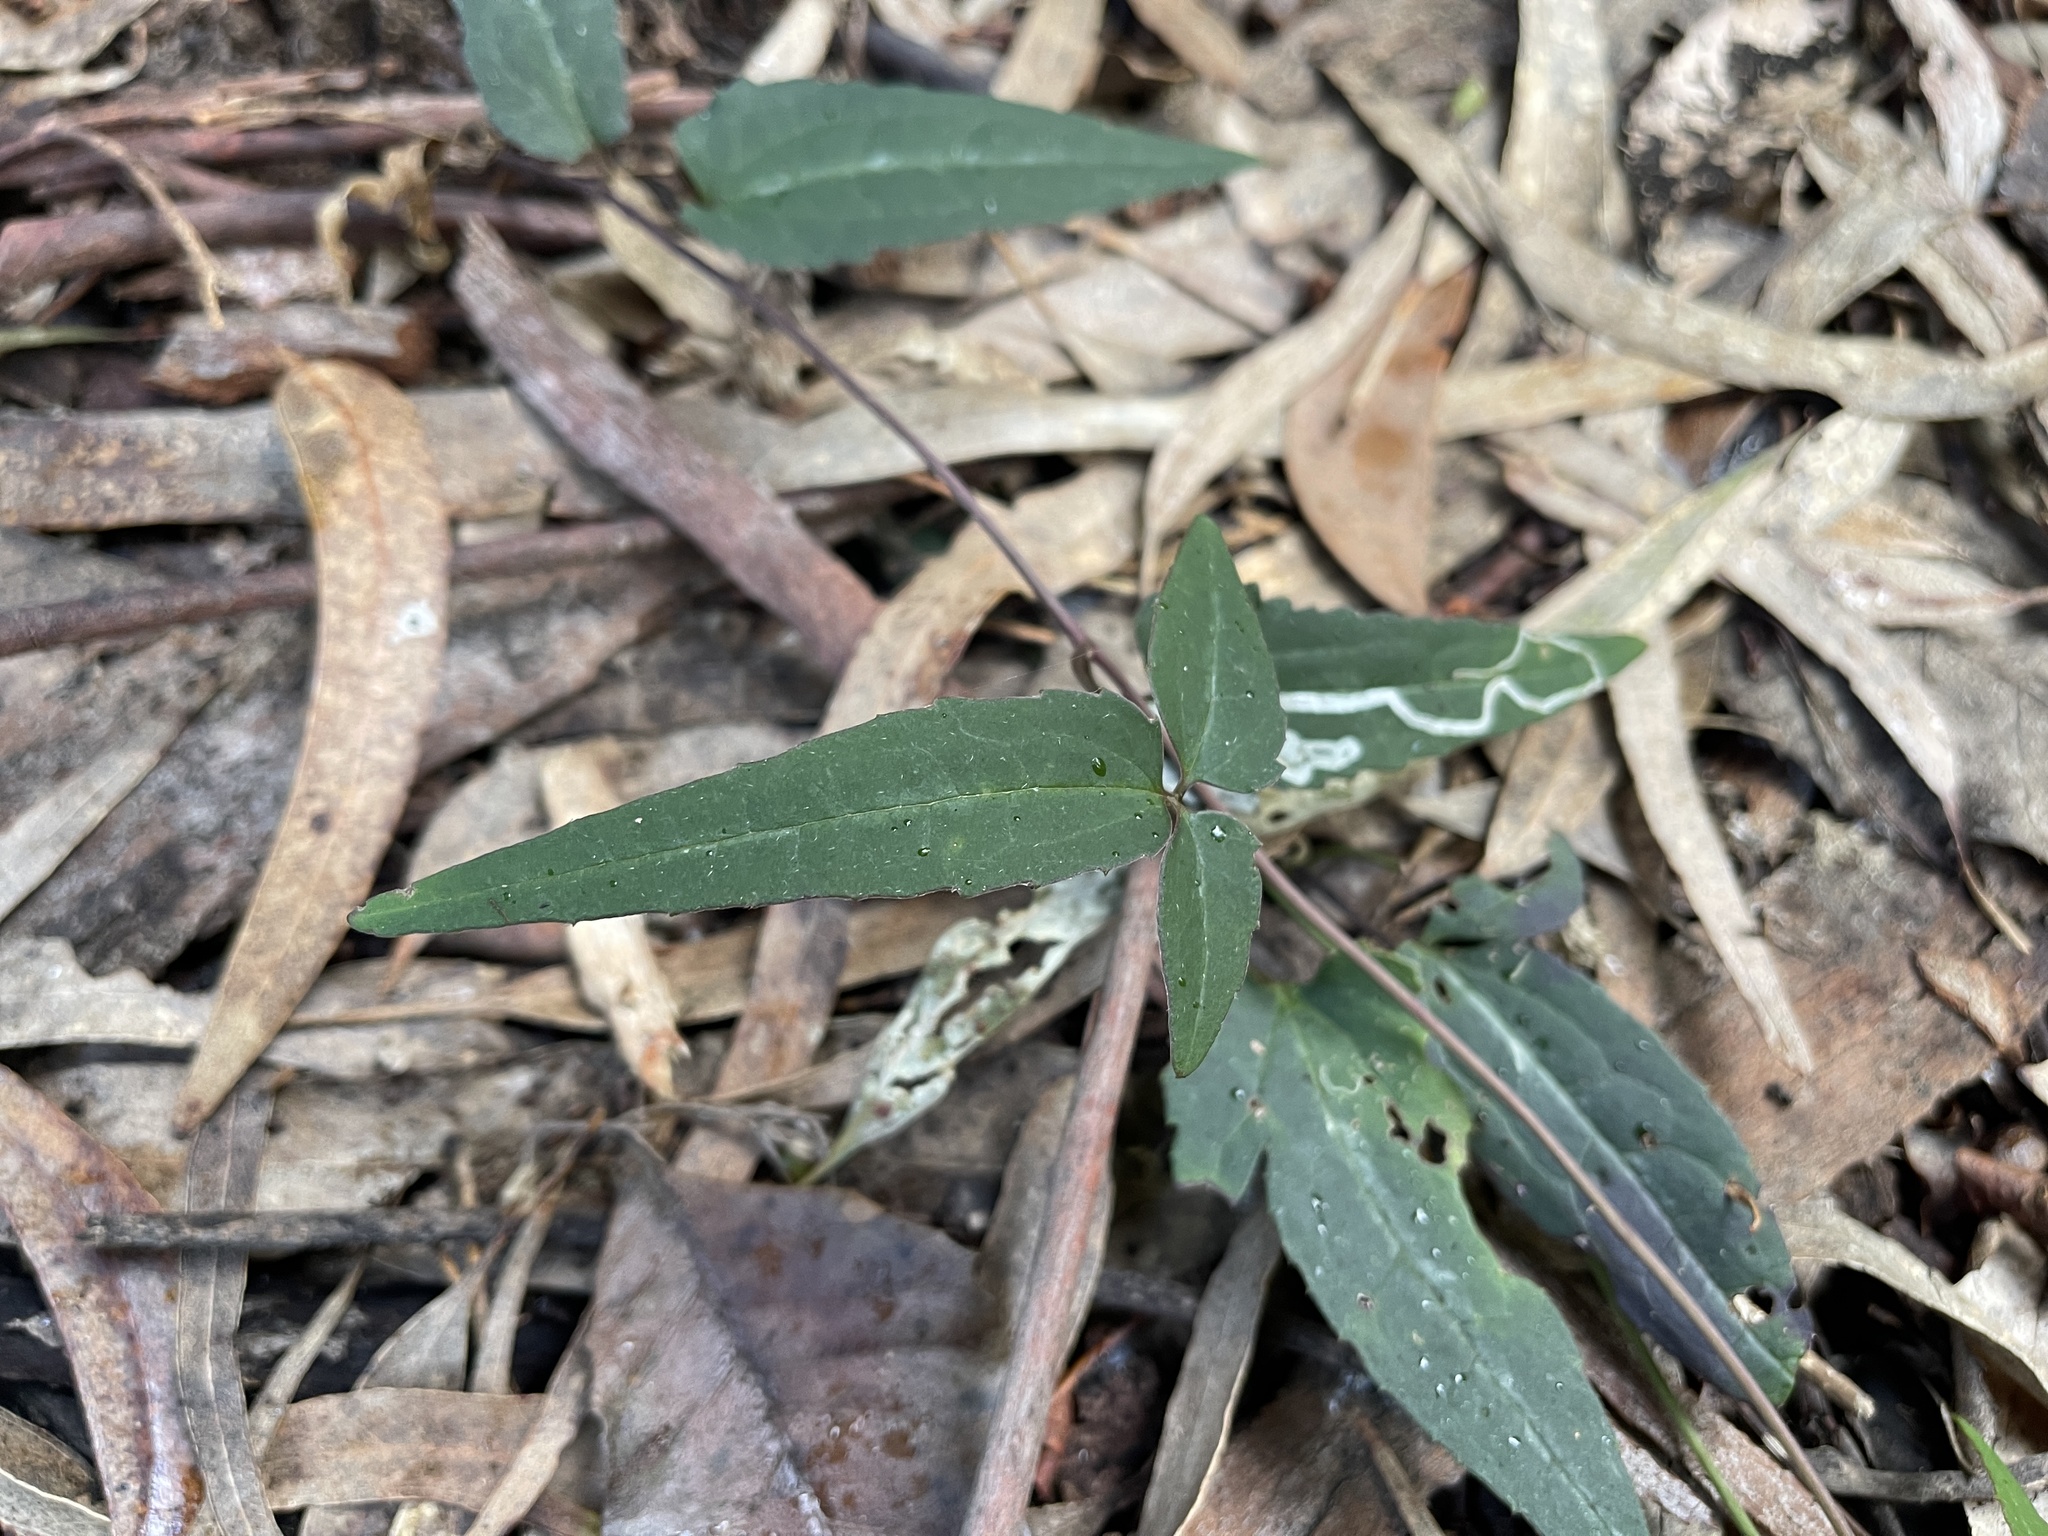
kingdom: Plantae
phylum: Tracheophyta
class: Magnoliopsida
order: Ranunculales
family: Ranunculaceae
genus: Clematis
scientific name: Clematis aristata
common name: Mountain clematis
